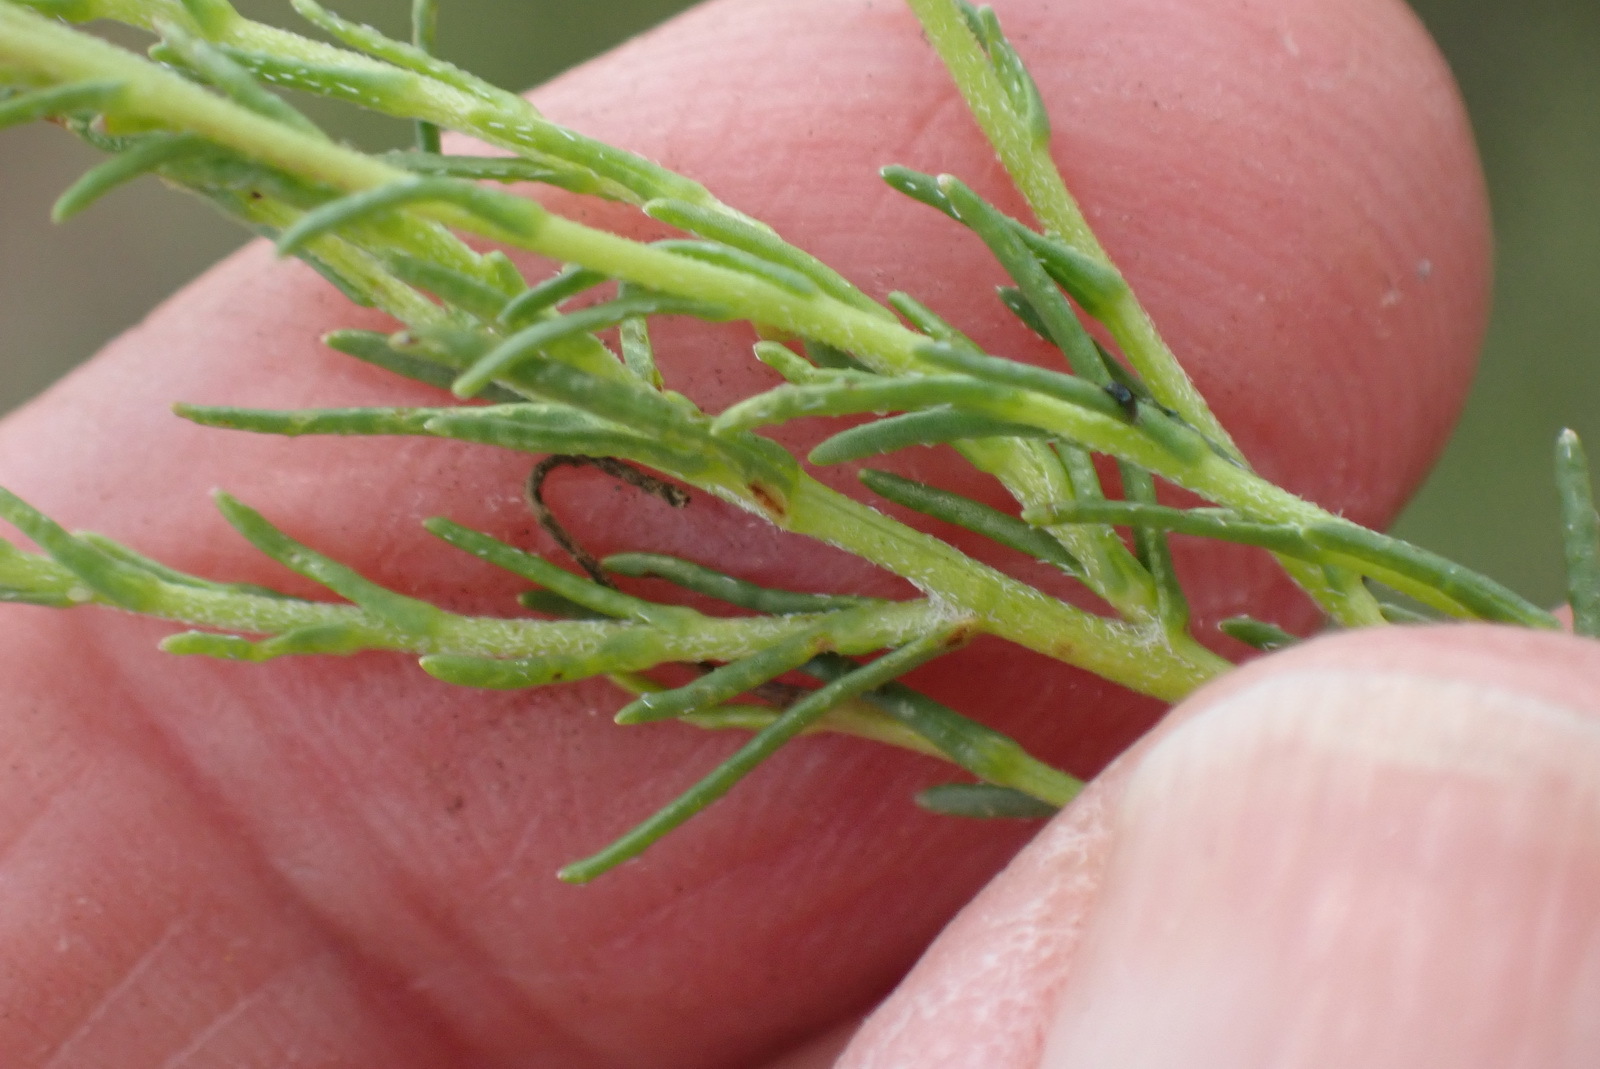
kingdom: Plantae
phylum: Tracheophyta
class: Magnoliopsida
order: Asterales
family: Asteraceae
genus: Felicia
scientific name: Felicia muricata
